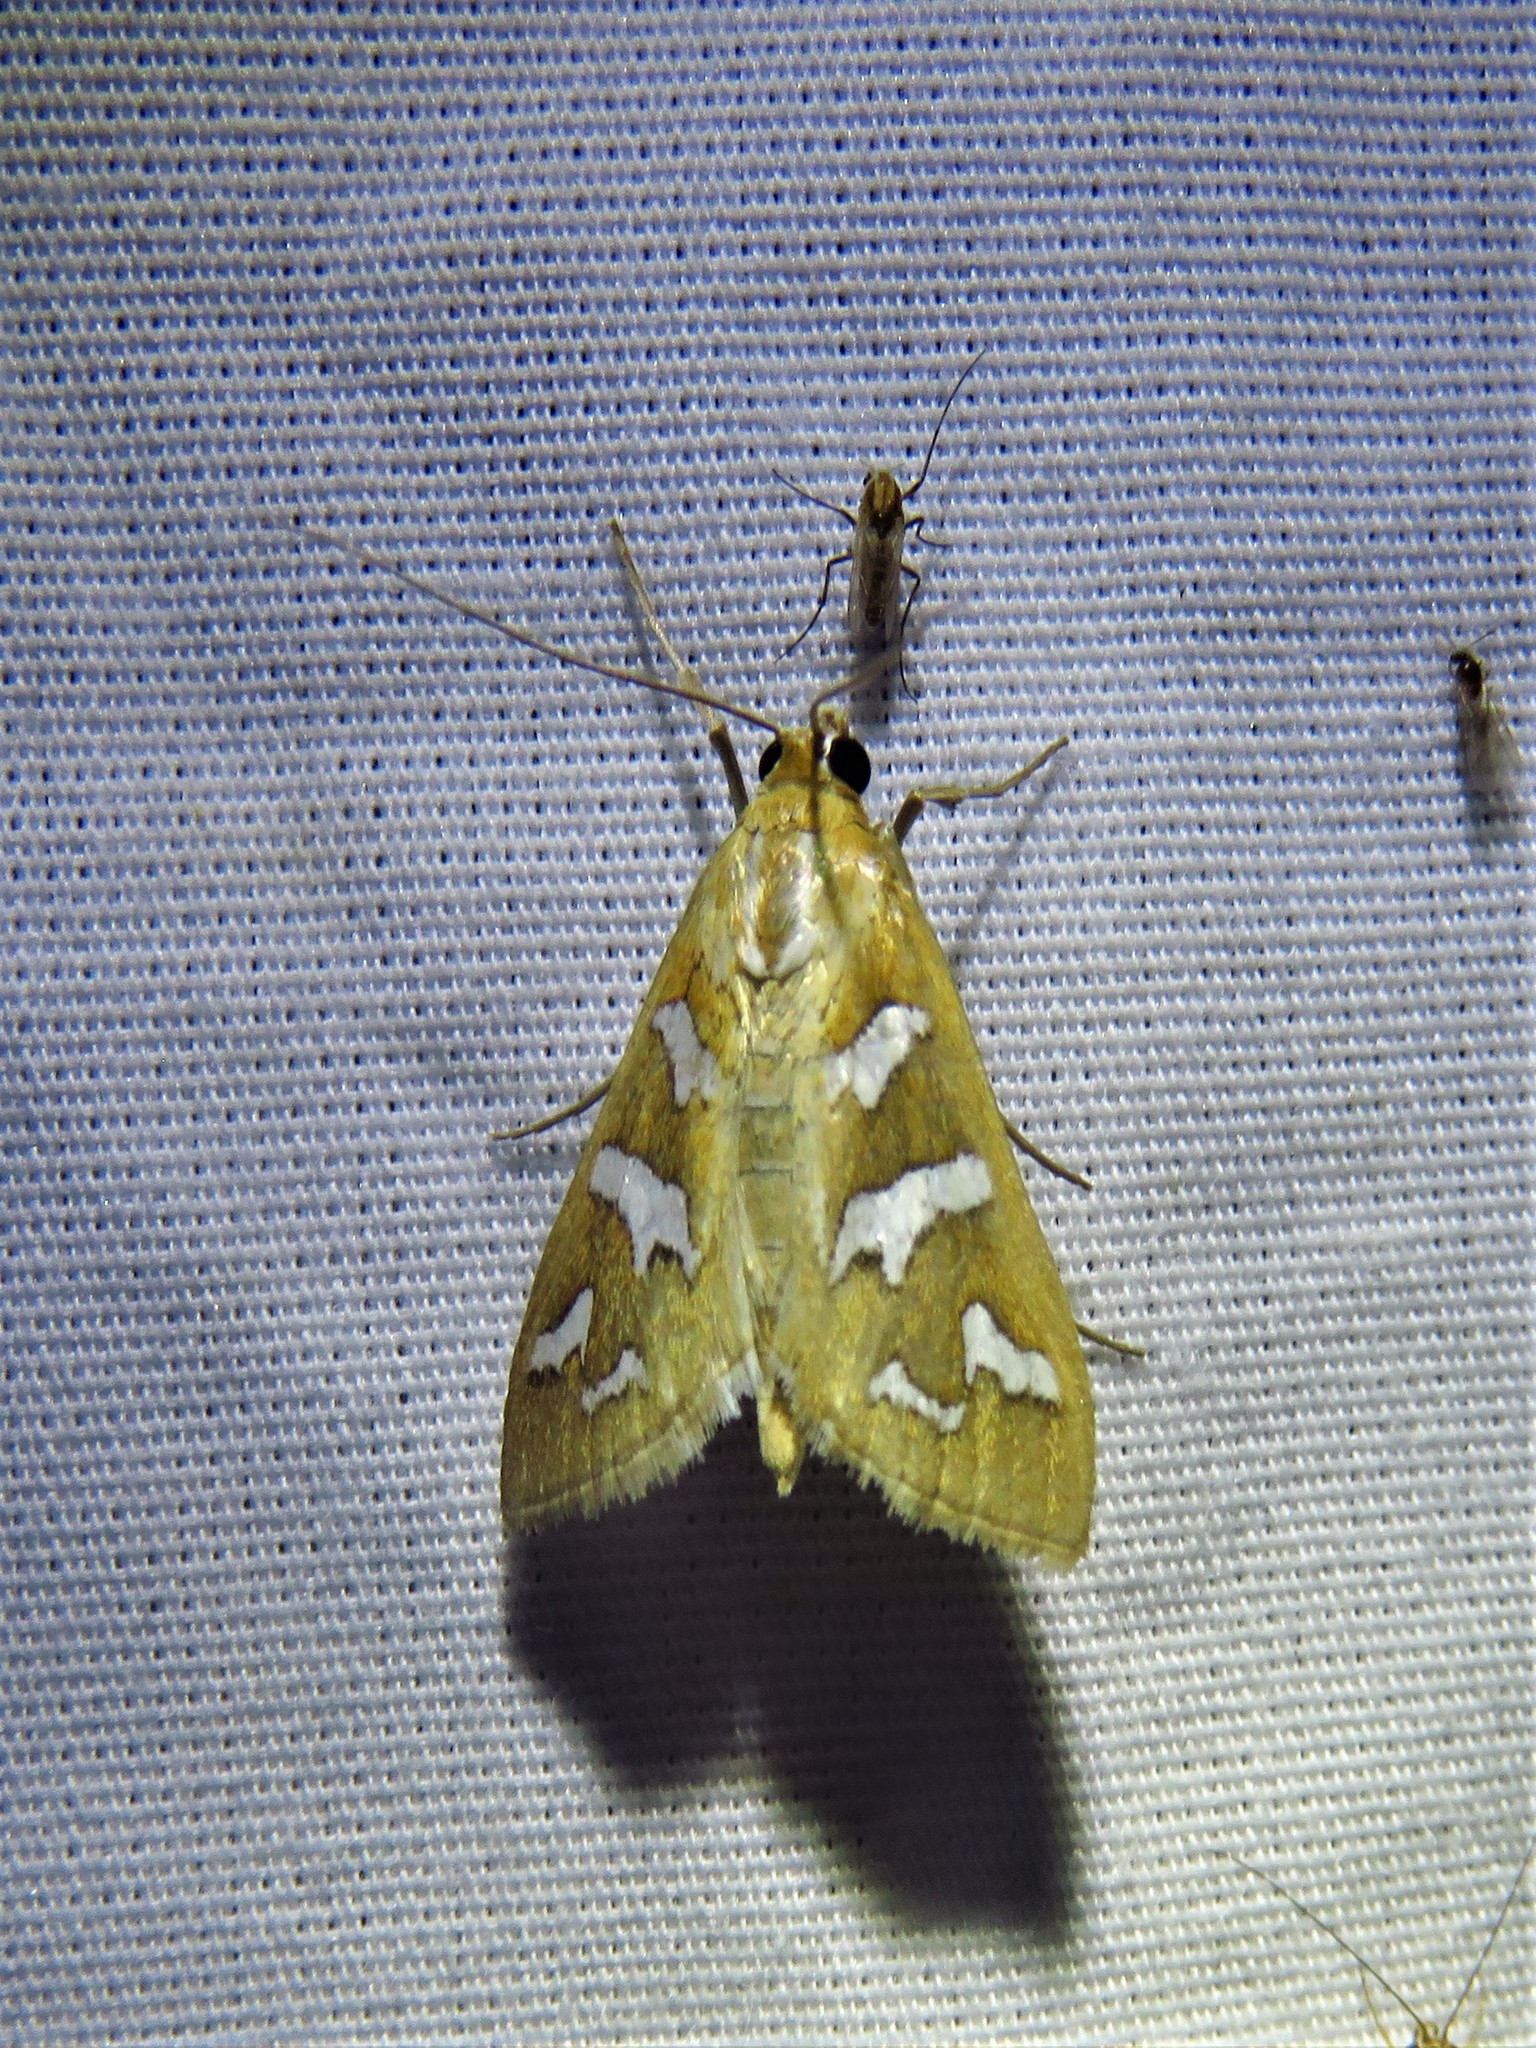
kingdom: Animalia
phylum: Arthropoda
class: Insecta
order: Lepidoptera
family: Crambidae
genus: Diastictis
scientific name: Diastictis fracturalis
